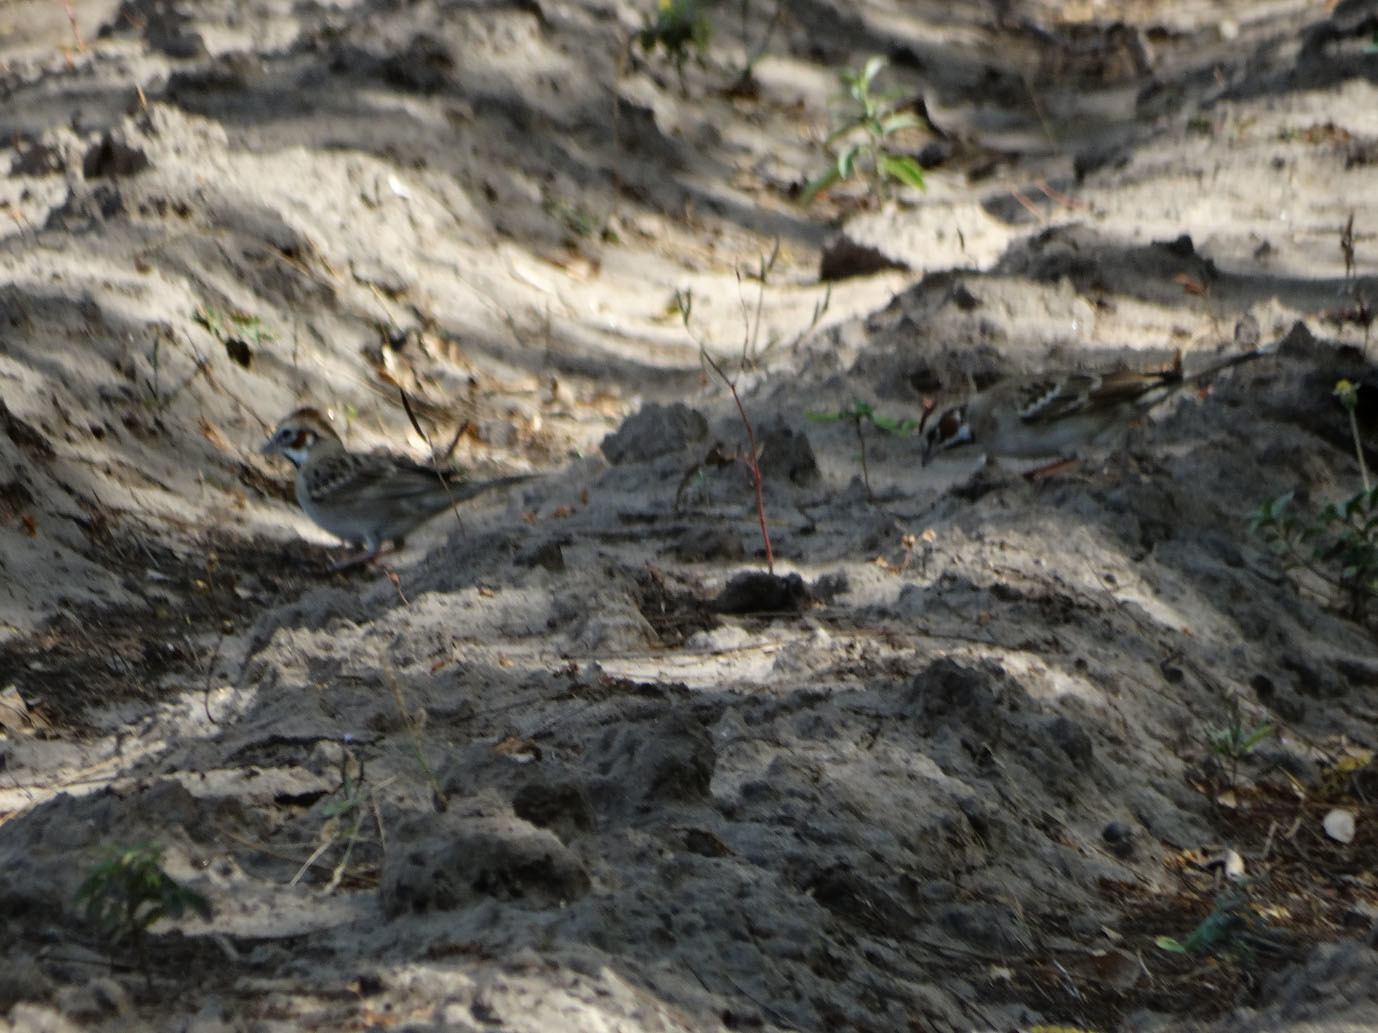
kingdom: Animalia
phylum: Chordata
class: Aves
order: Passeriformes
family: Passerellidae
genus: Chondestes
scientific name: Chondestes grammacus
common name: Lark sparrow
